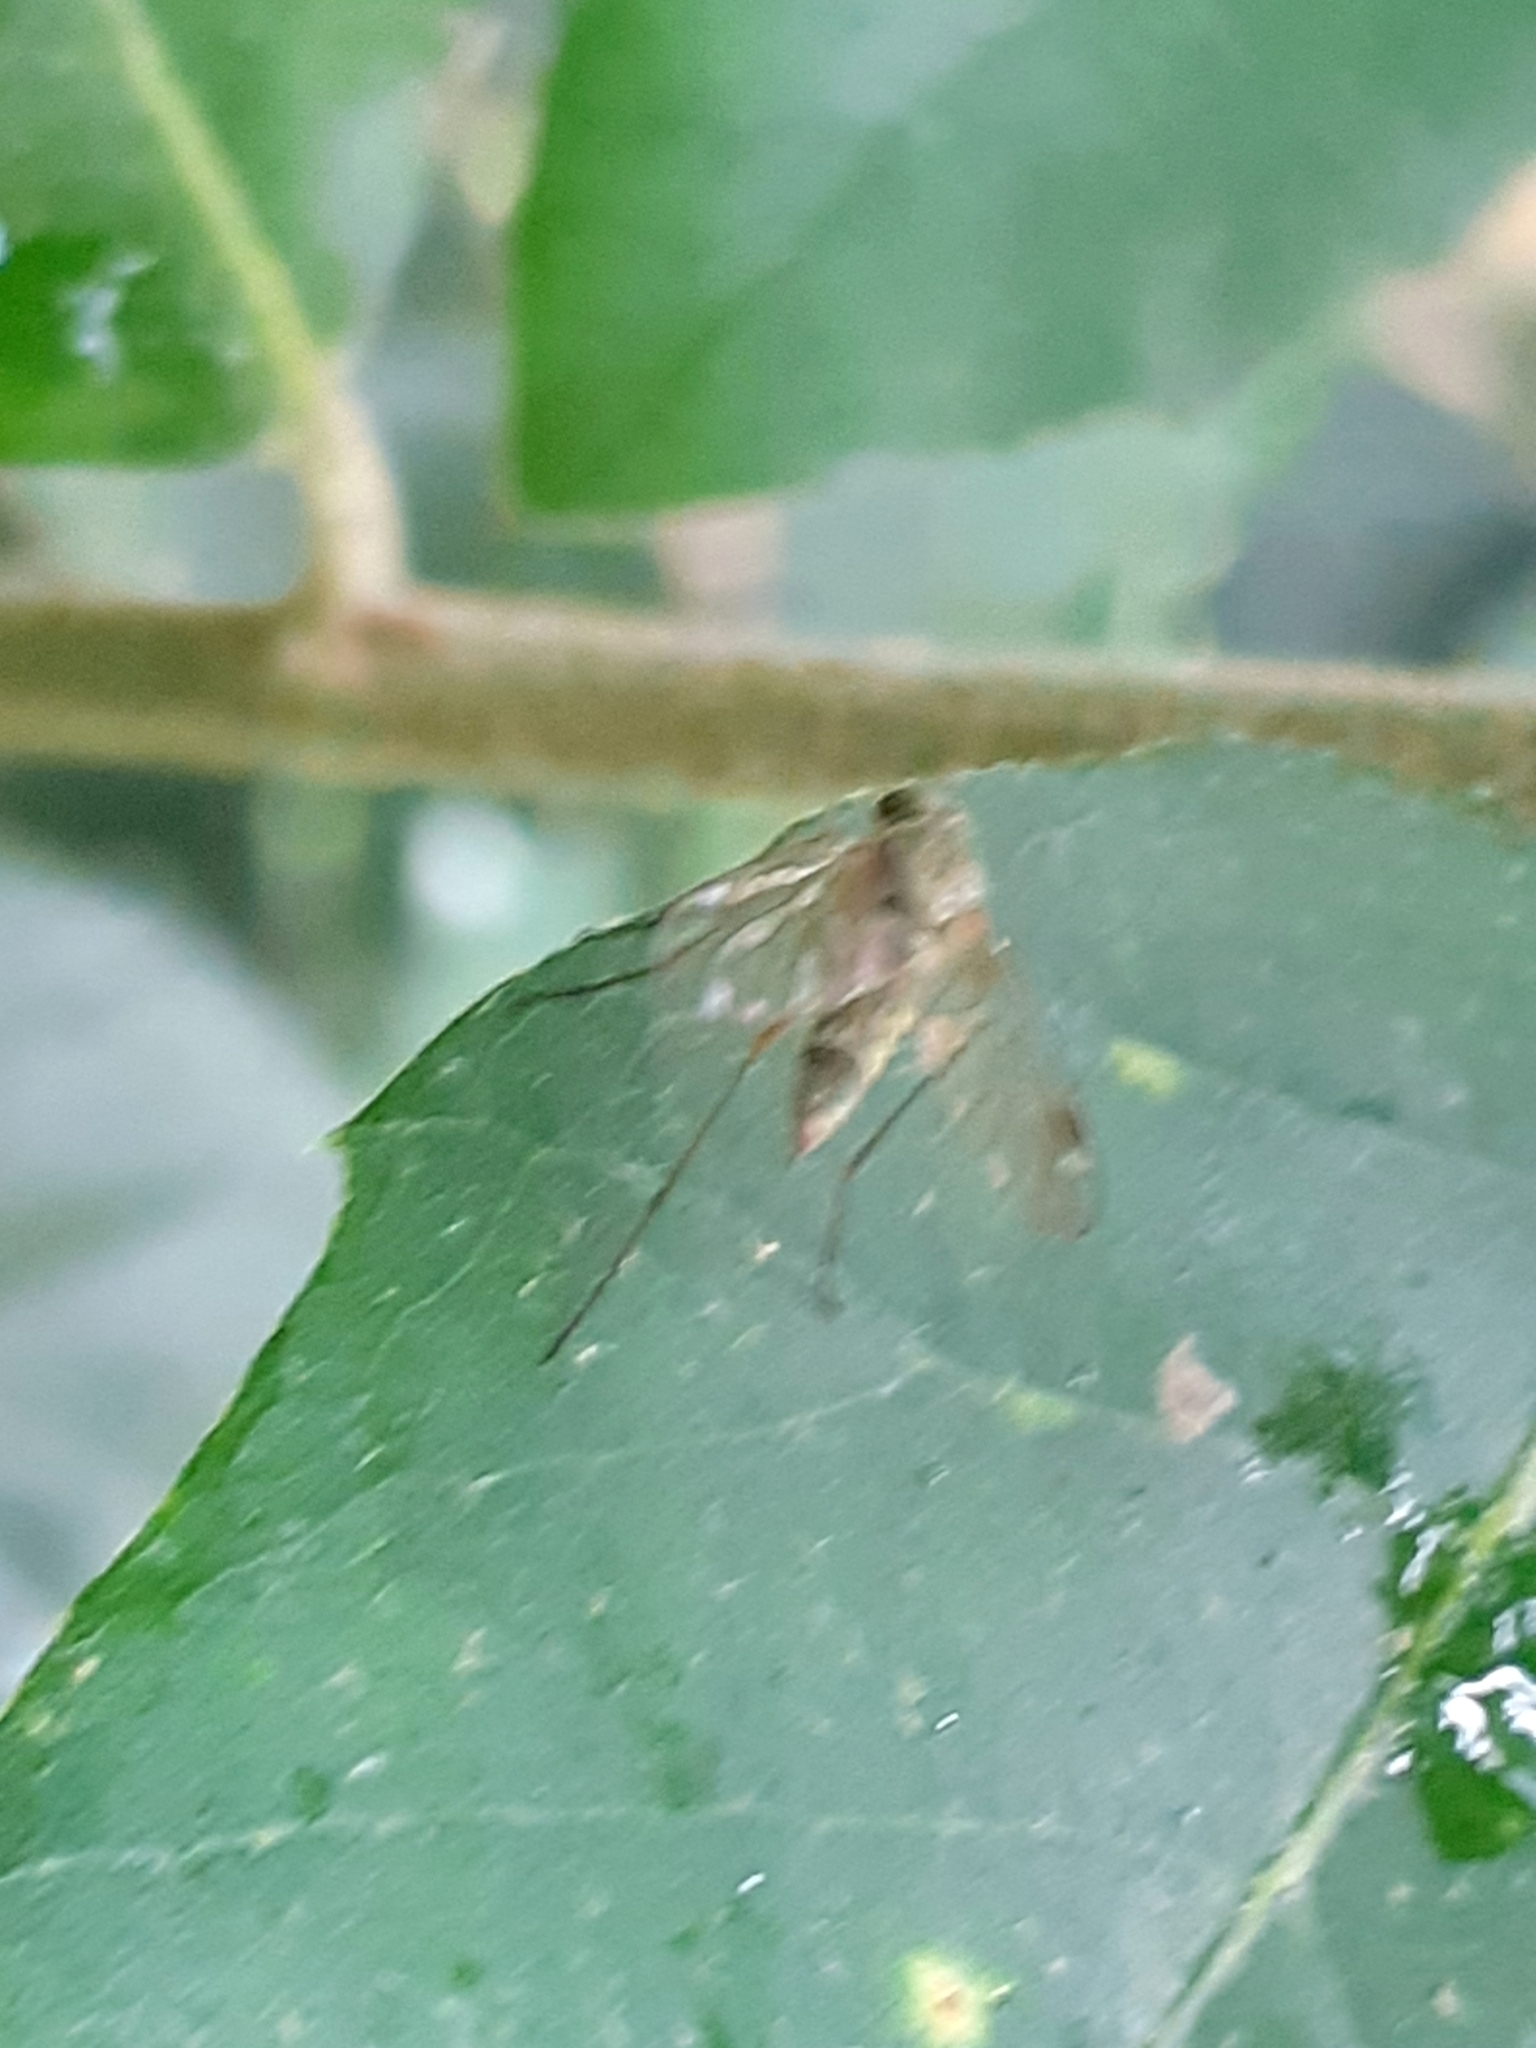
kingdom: Animalia
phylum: Arthropoda
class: Insecta
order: Diptera
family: Rhagionidae
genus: Chrysopilus
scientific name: Chrysopilus asiliformis
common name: Little snipefly
